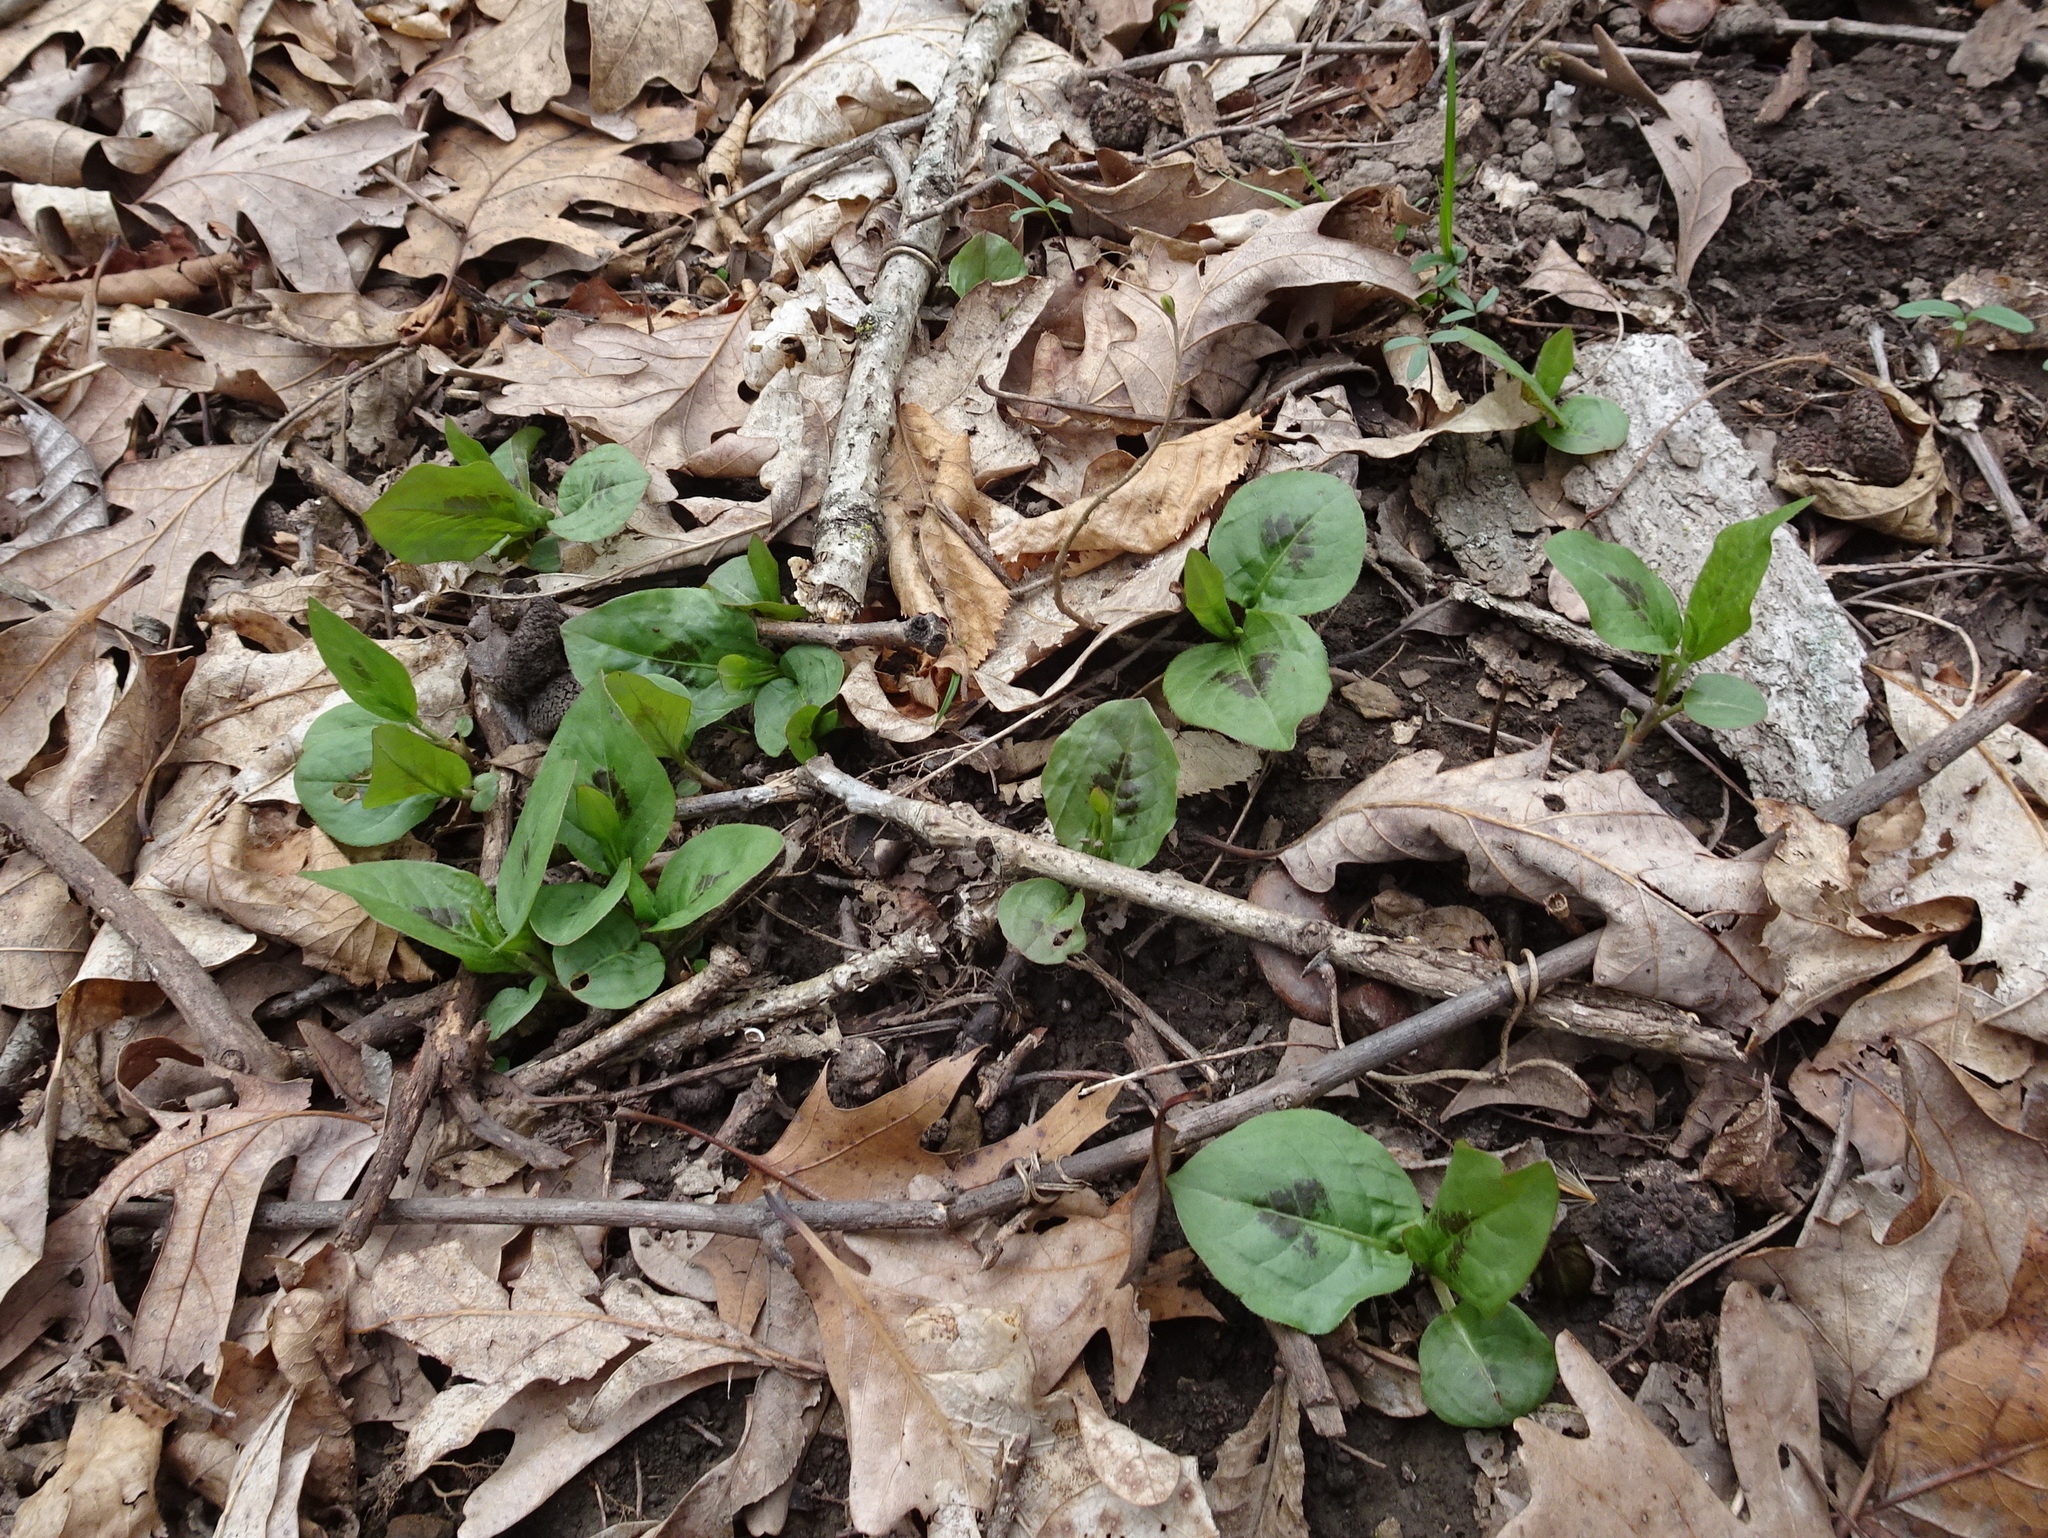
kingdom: Plantae
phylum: Tracheophyta
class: Magnoliopsida
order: Caryophyllales
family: Polygonaceae
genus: Persicaria
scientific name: Persicaria virginiana
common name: Jumpseed
